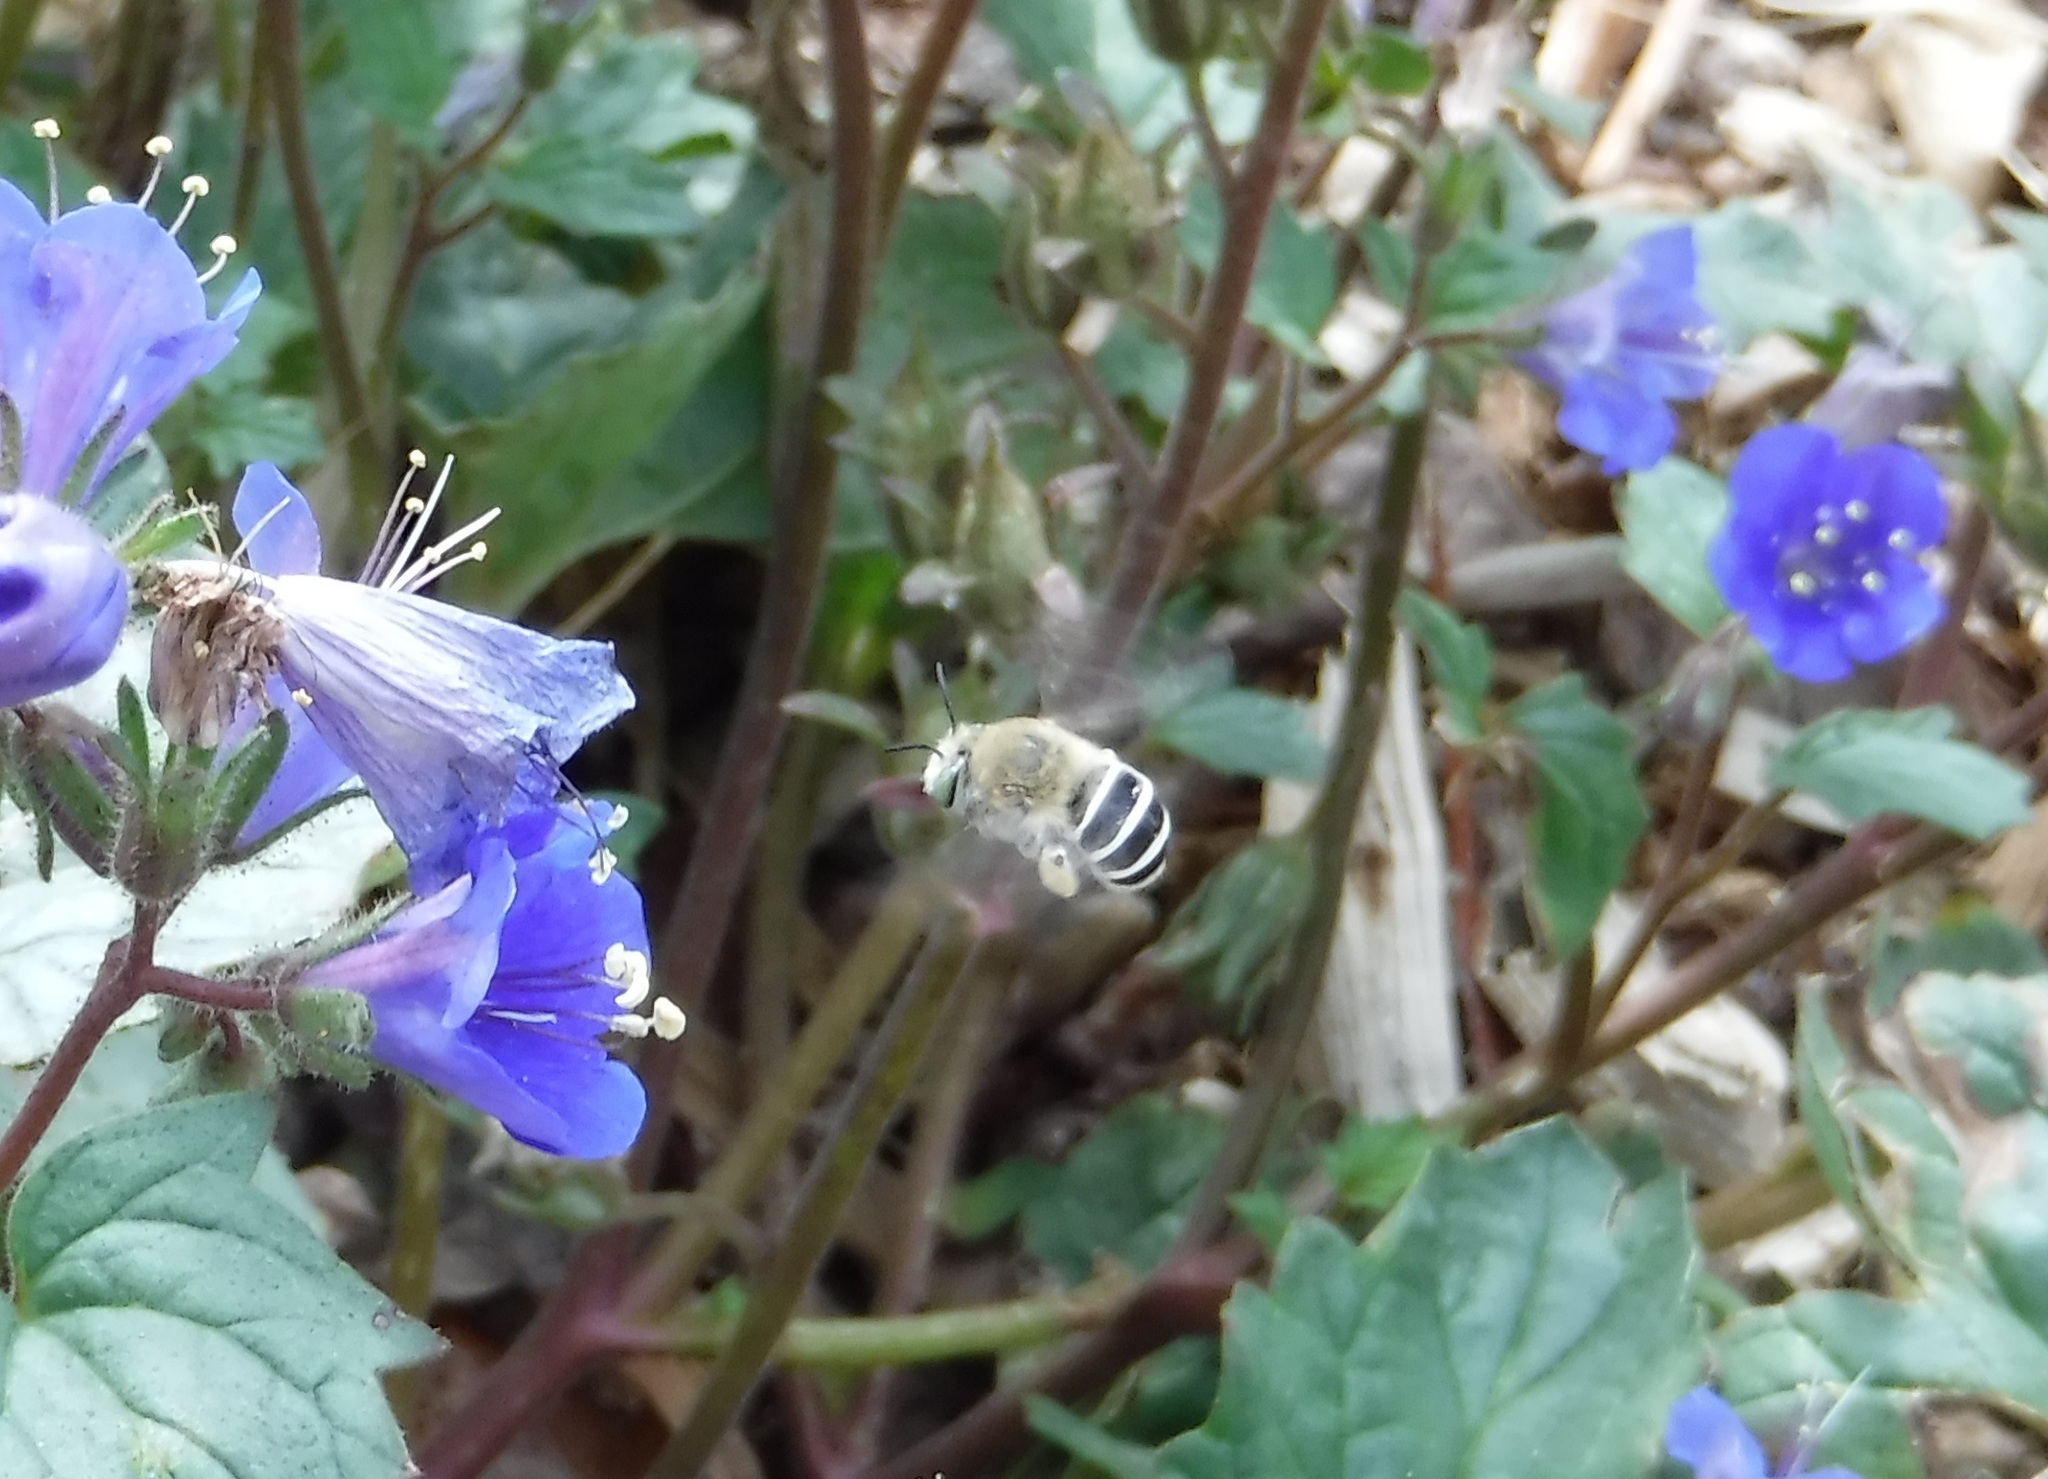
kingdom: Animalia
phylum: Arthropoda
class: Insecta
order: Hymenoptera
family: Apidae
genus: Anthophora
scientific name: Anthophora californica
